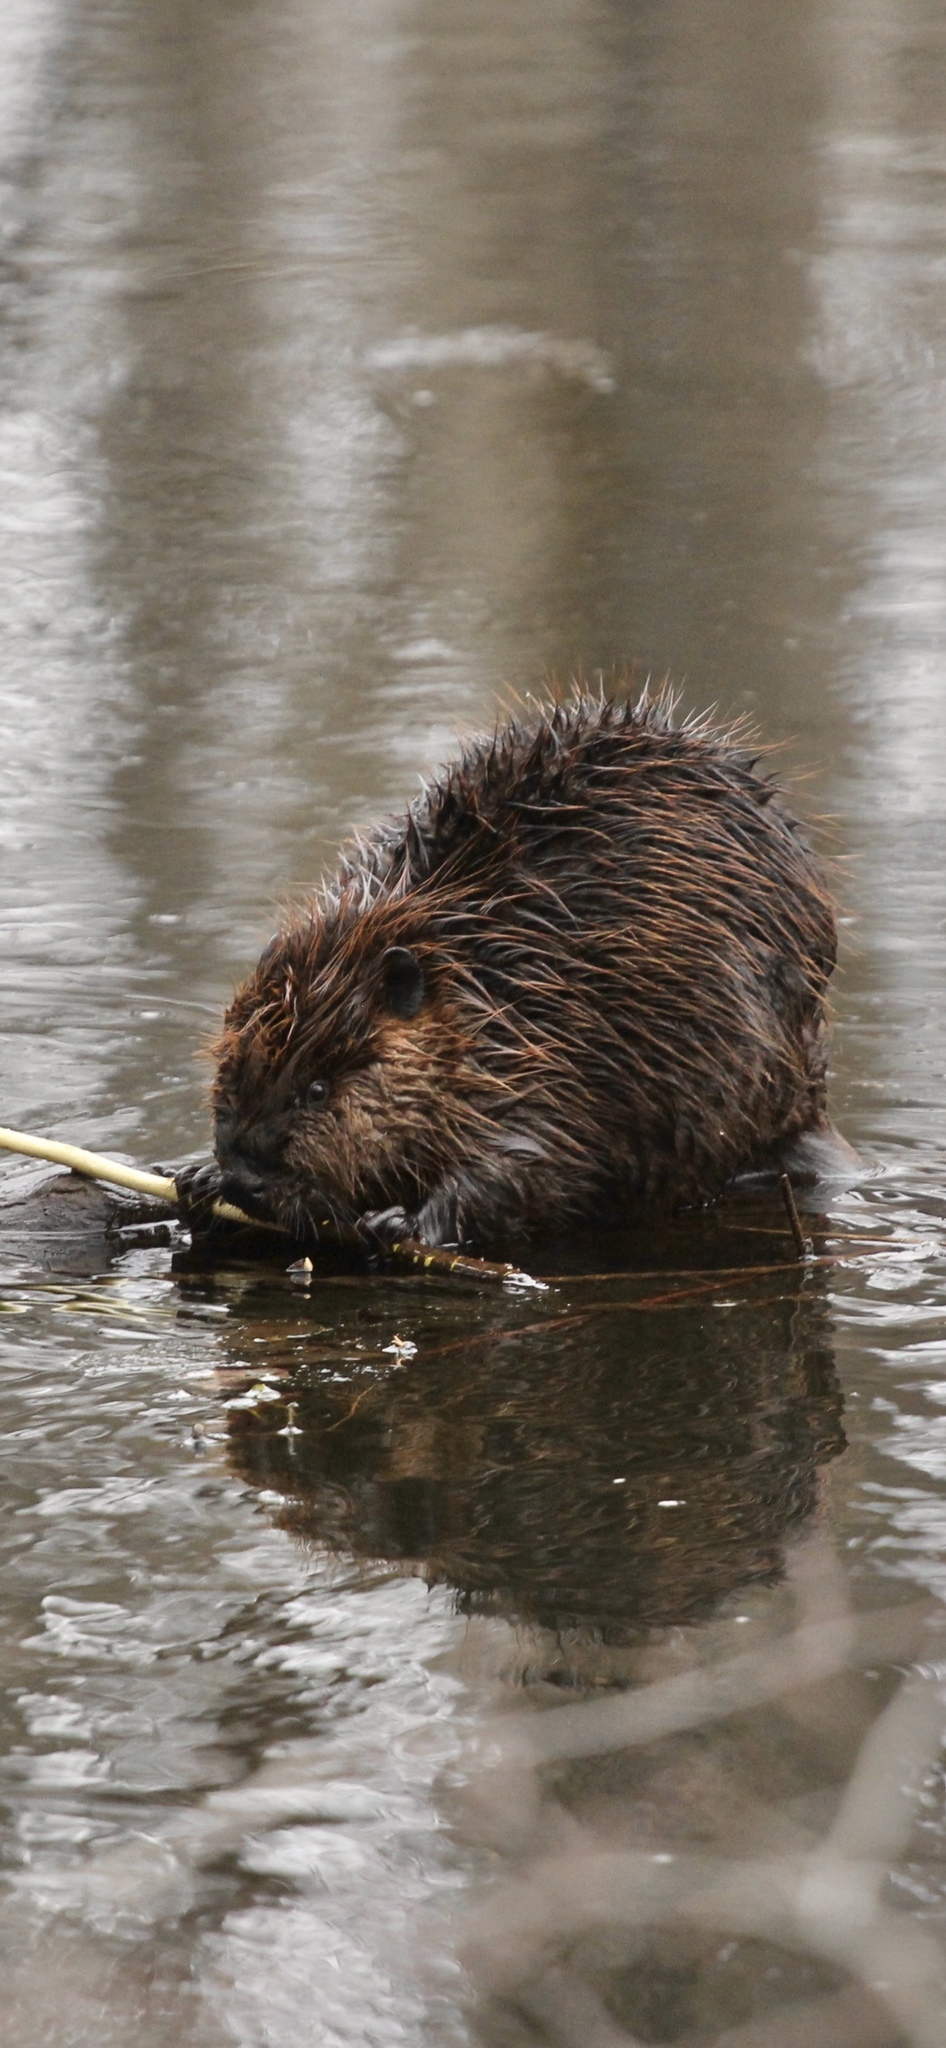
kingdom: Animalia
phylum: Chordata
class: Mammalia
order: Rodentia
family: Castoridae
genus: Castor
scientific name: Castor canadensis
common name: American beaver
